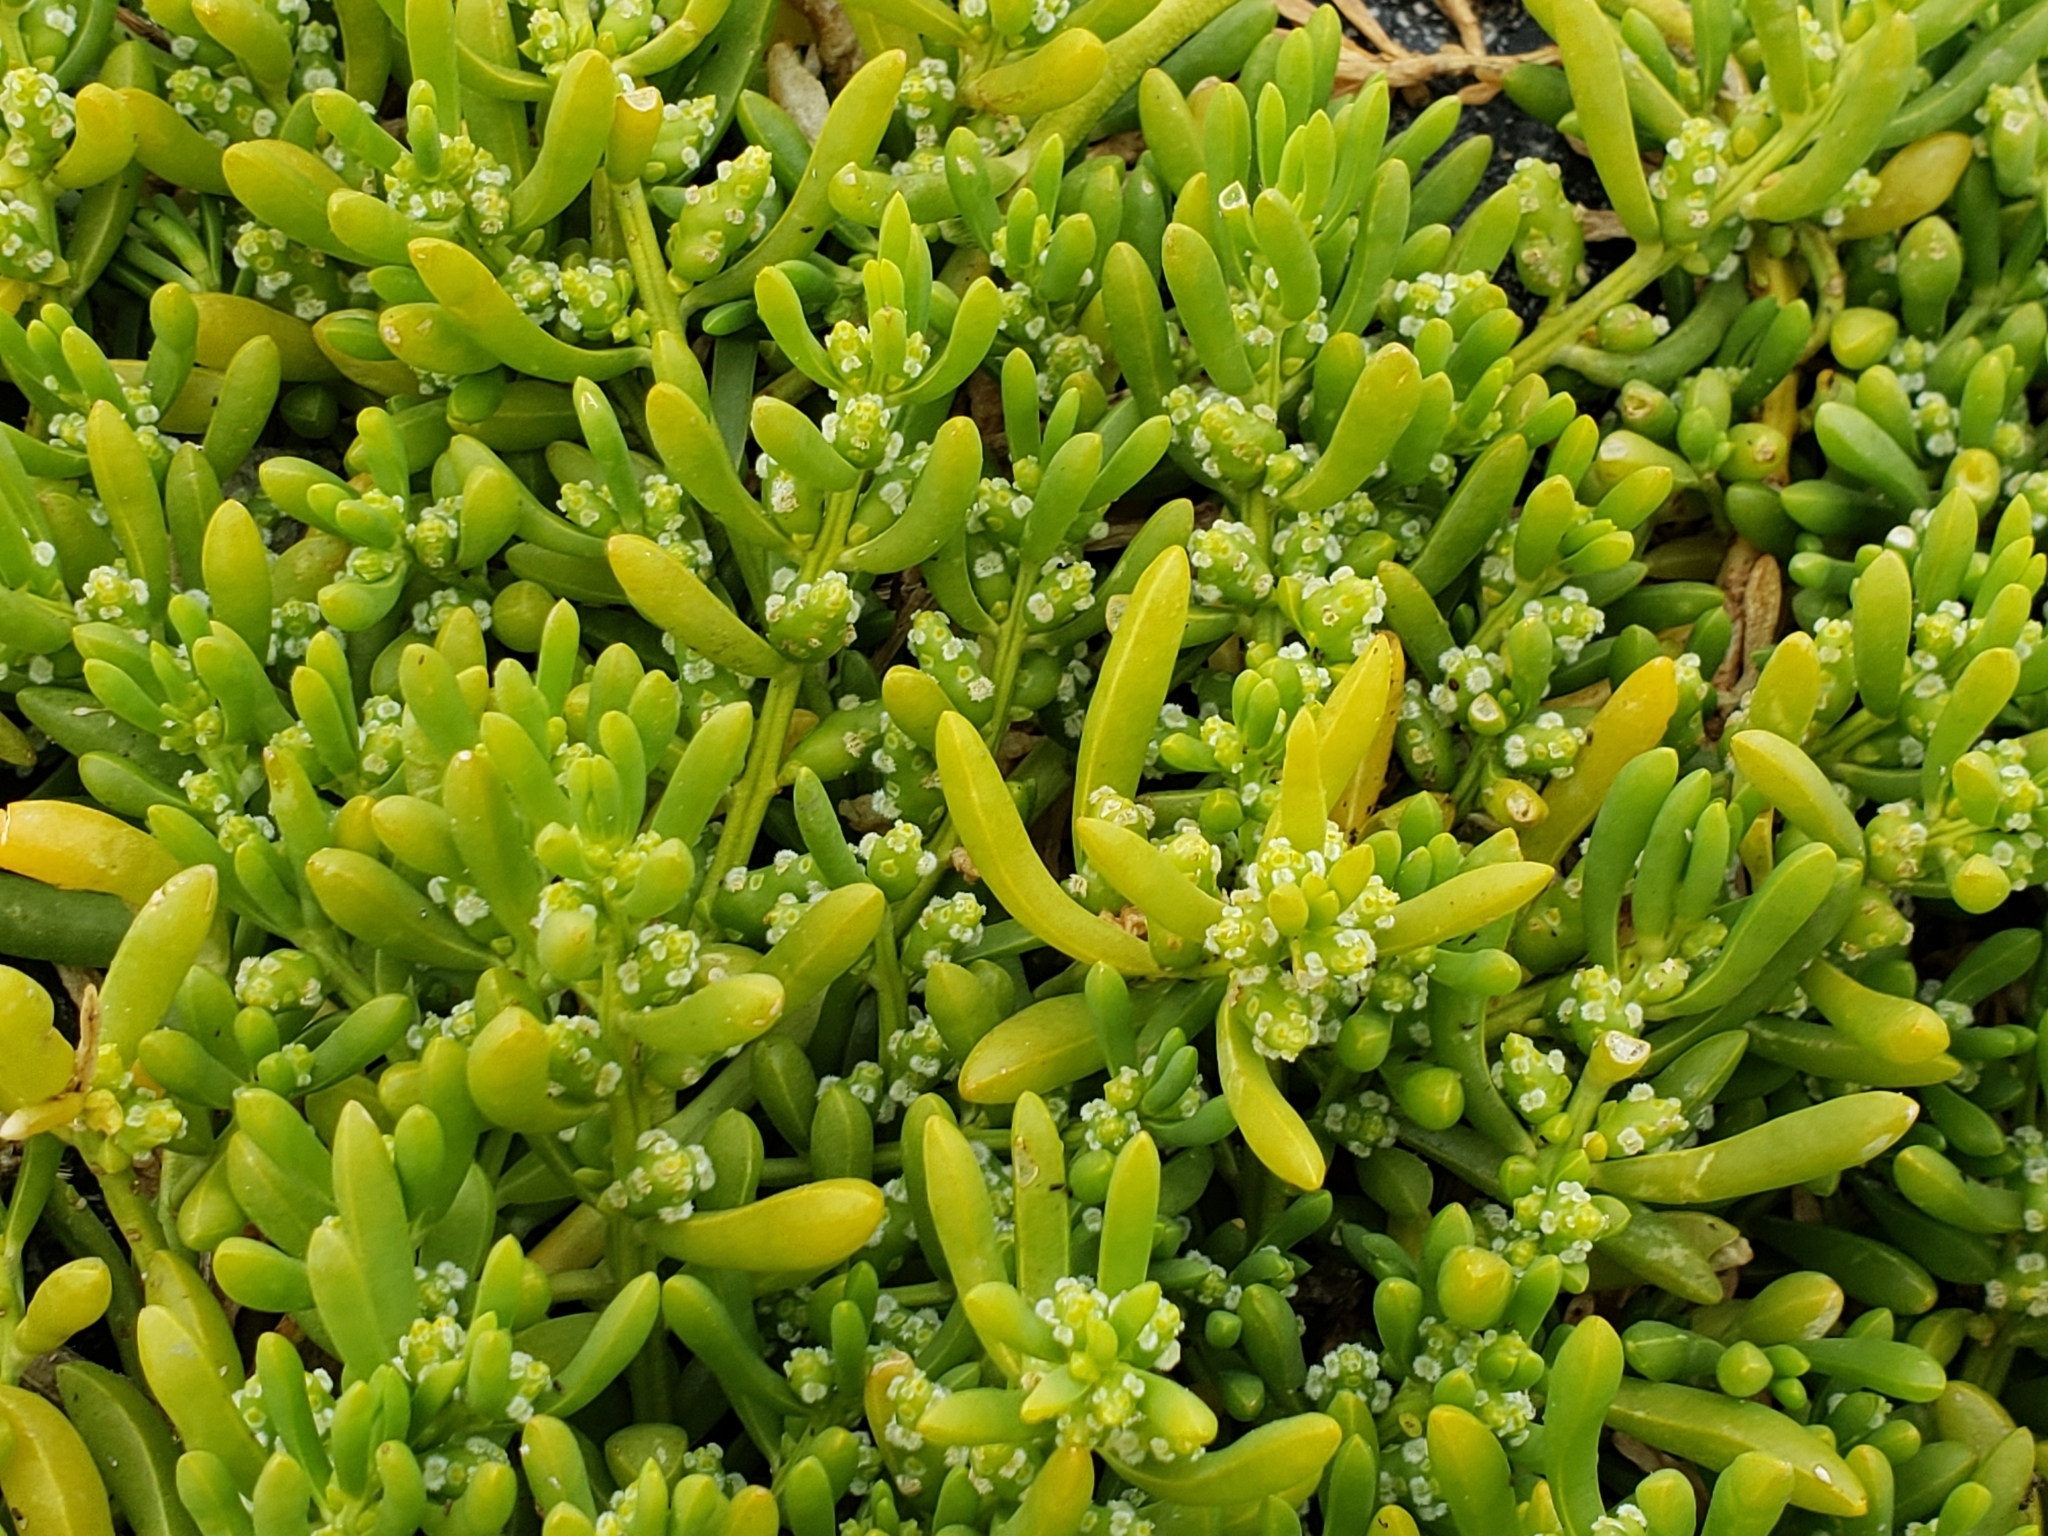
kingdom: Plantae
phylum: Tracheophyta
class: Magnoliopsida
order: Brassicales
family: Bataceae
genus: Batis
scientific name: Batis maritima
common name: Turtleweed
